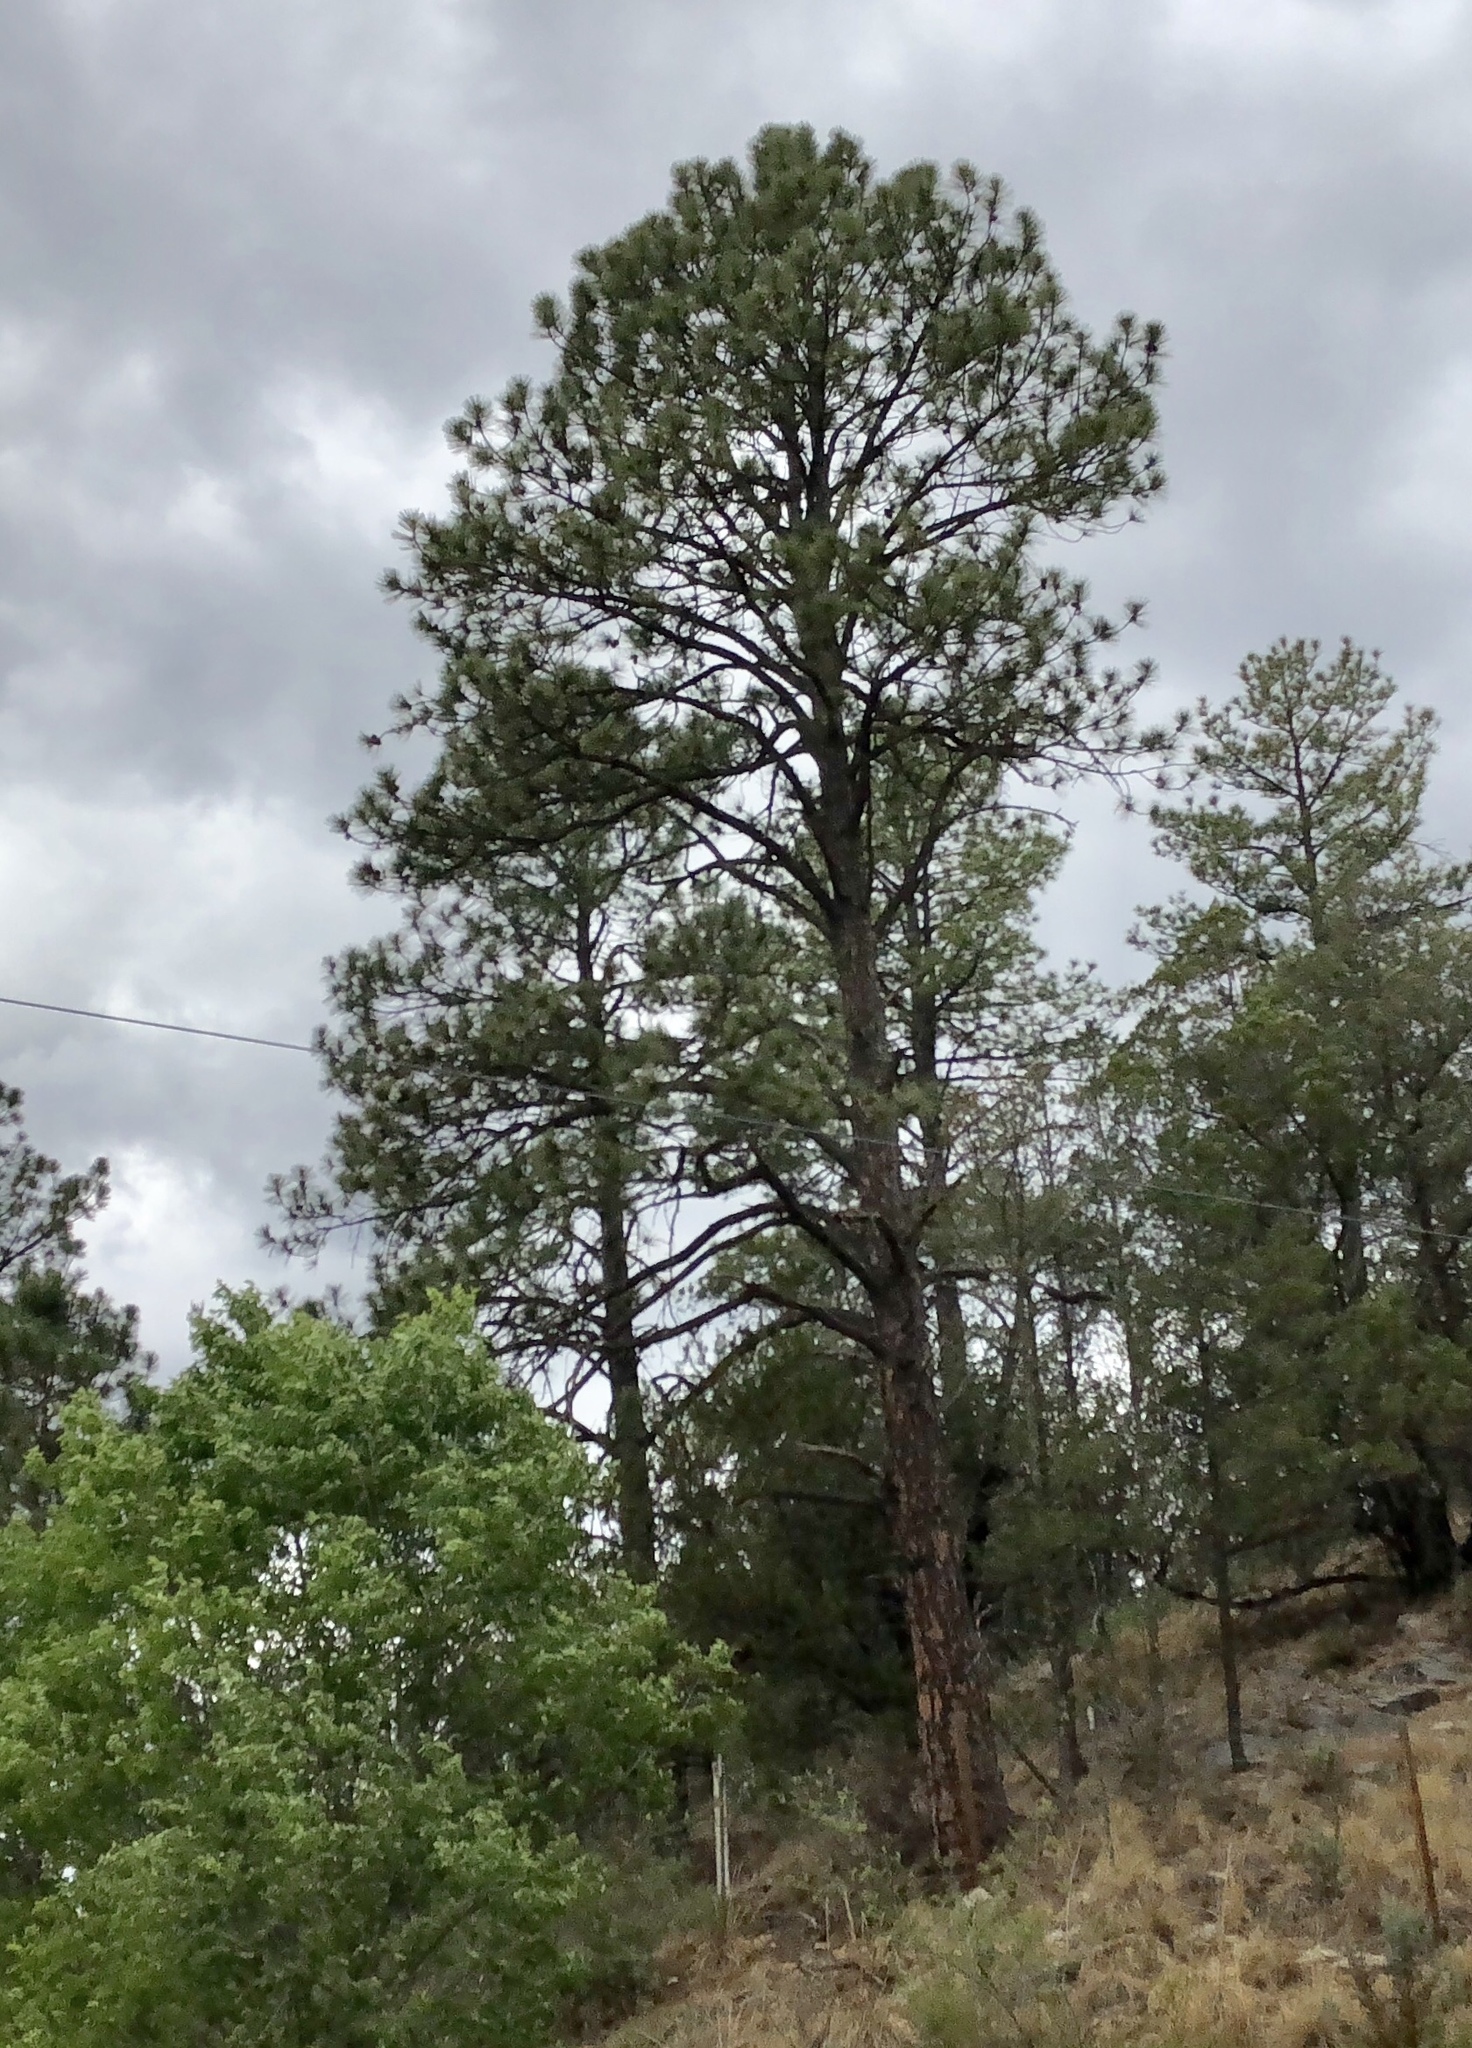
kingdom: Plantae
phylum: Tracheophyta
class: Pinopsida
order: Pinales
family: Pinaceae
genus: Pinus
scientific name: Pinus ponderosa
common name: Western yellow-pine
